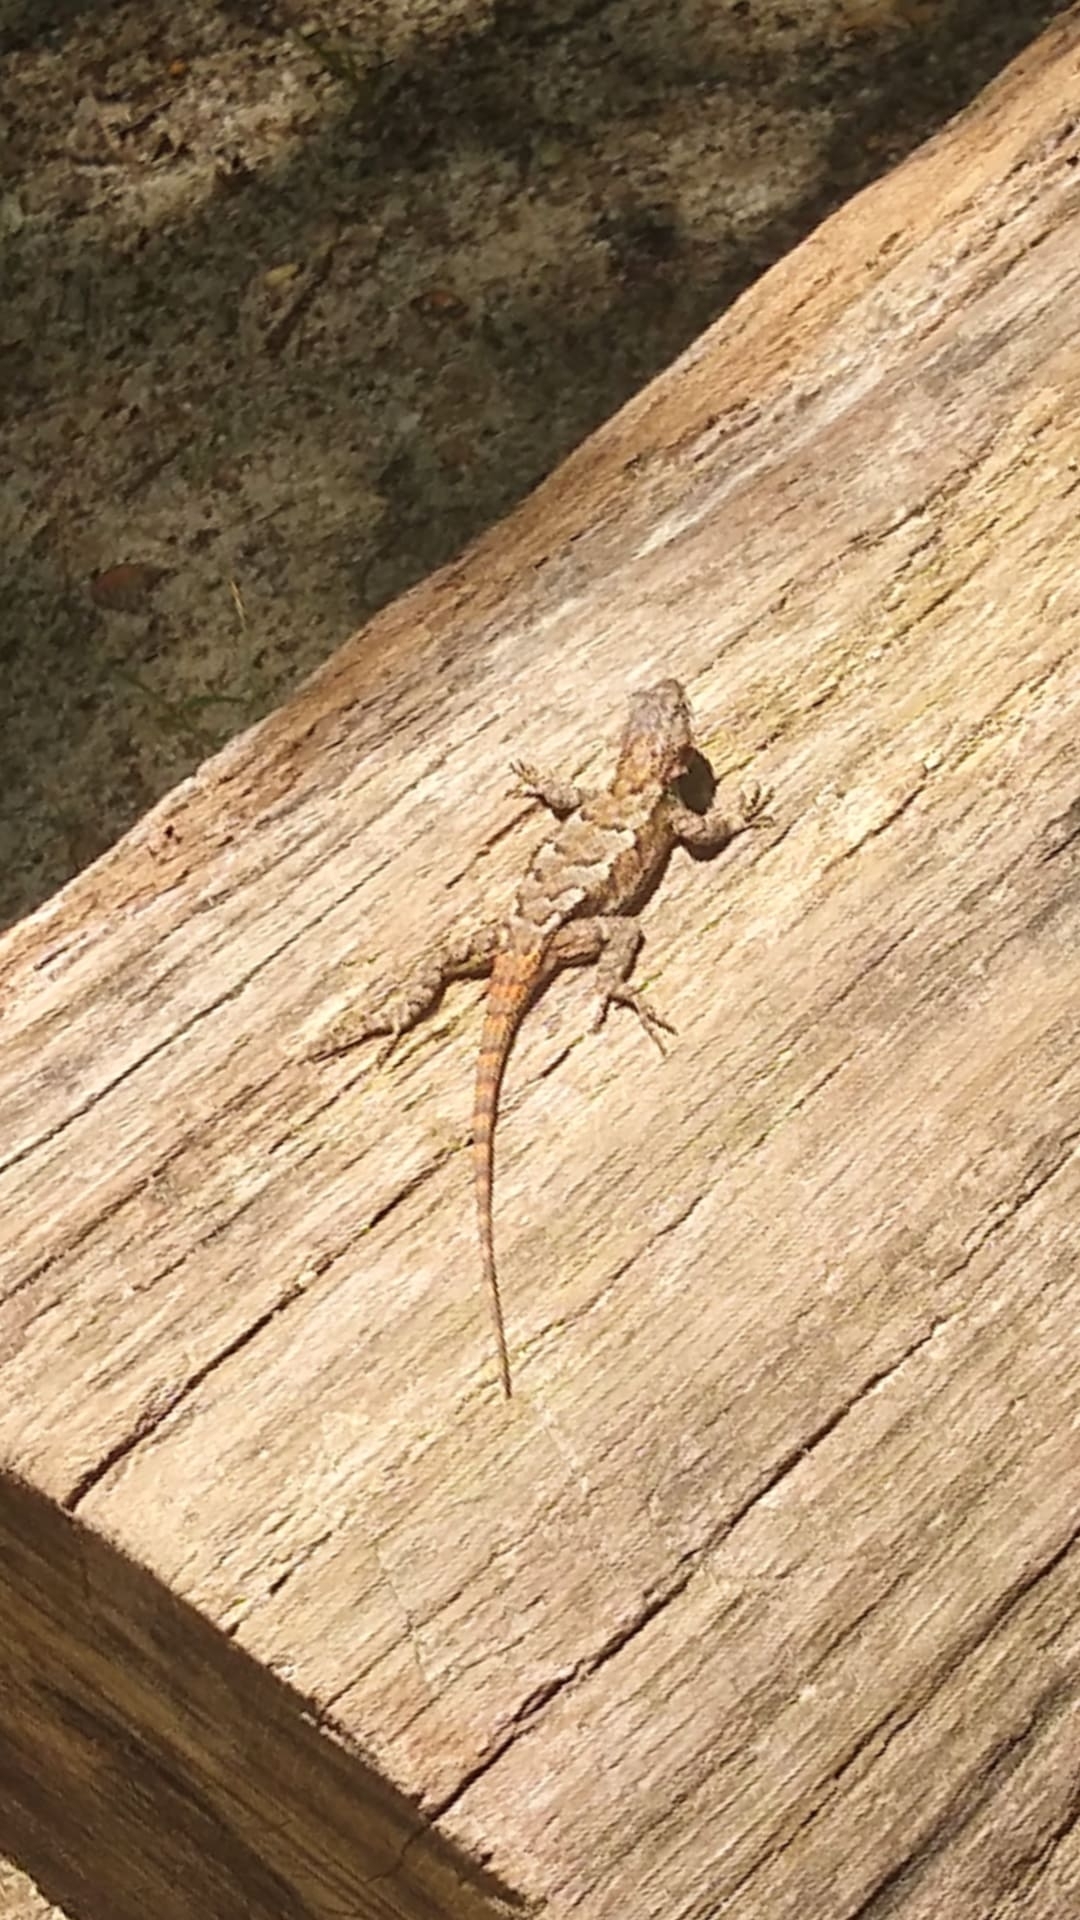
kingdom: Animalia
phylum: Chordata
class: Squamata
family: Phrynosomatidae
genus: Sceloporus
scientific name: Sceloporus undulatus
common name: Eastern fence lizard
